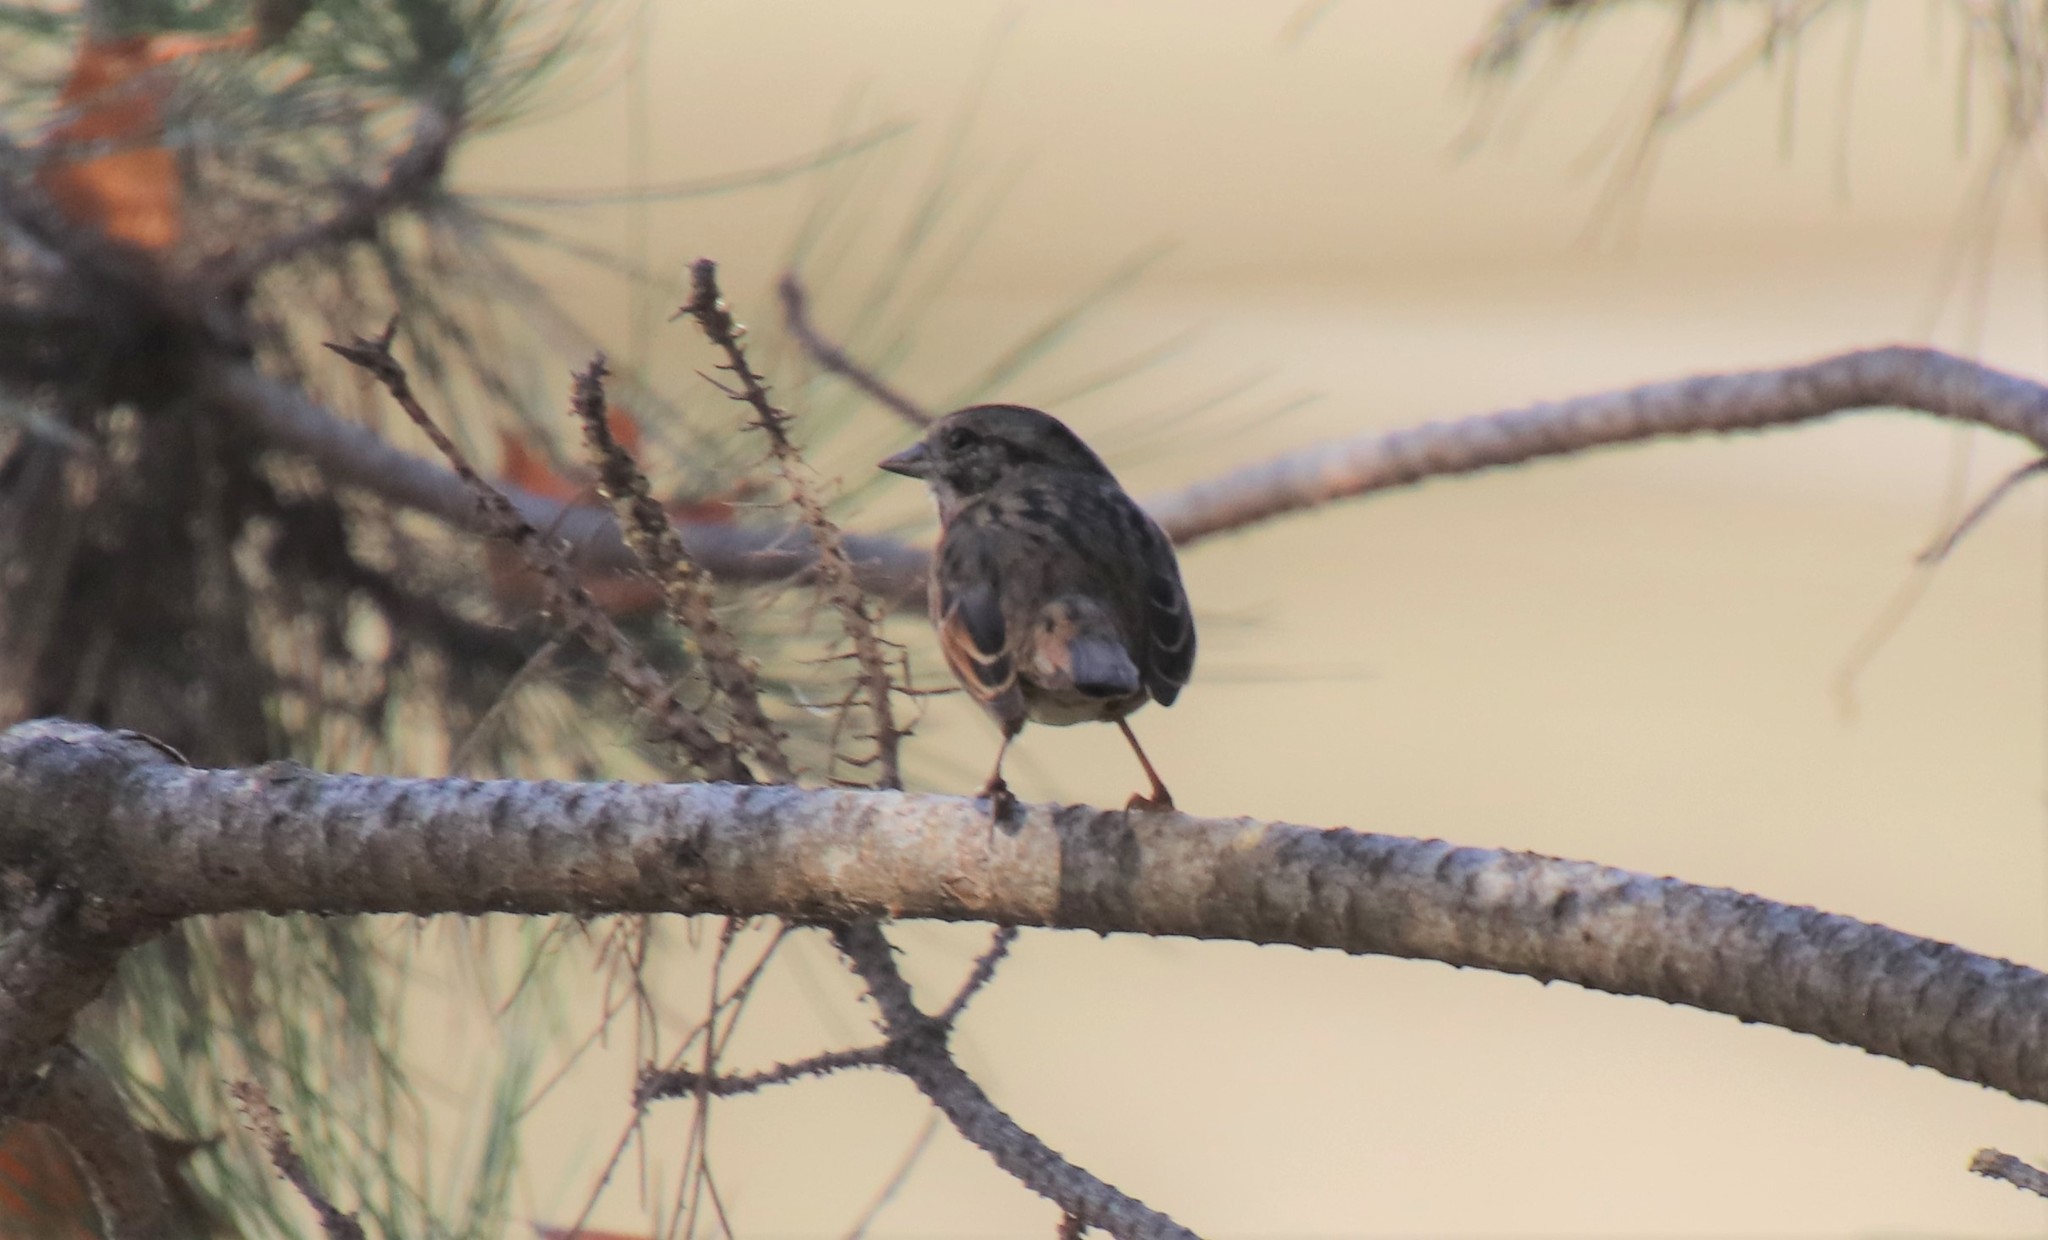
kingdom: Animalia
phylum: Chordata
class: Aves
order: Passeriformes
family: Passerellidae
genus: Melospiza
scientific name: Melospiza melodia
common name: Song sparrow
